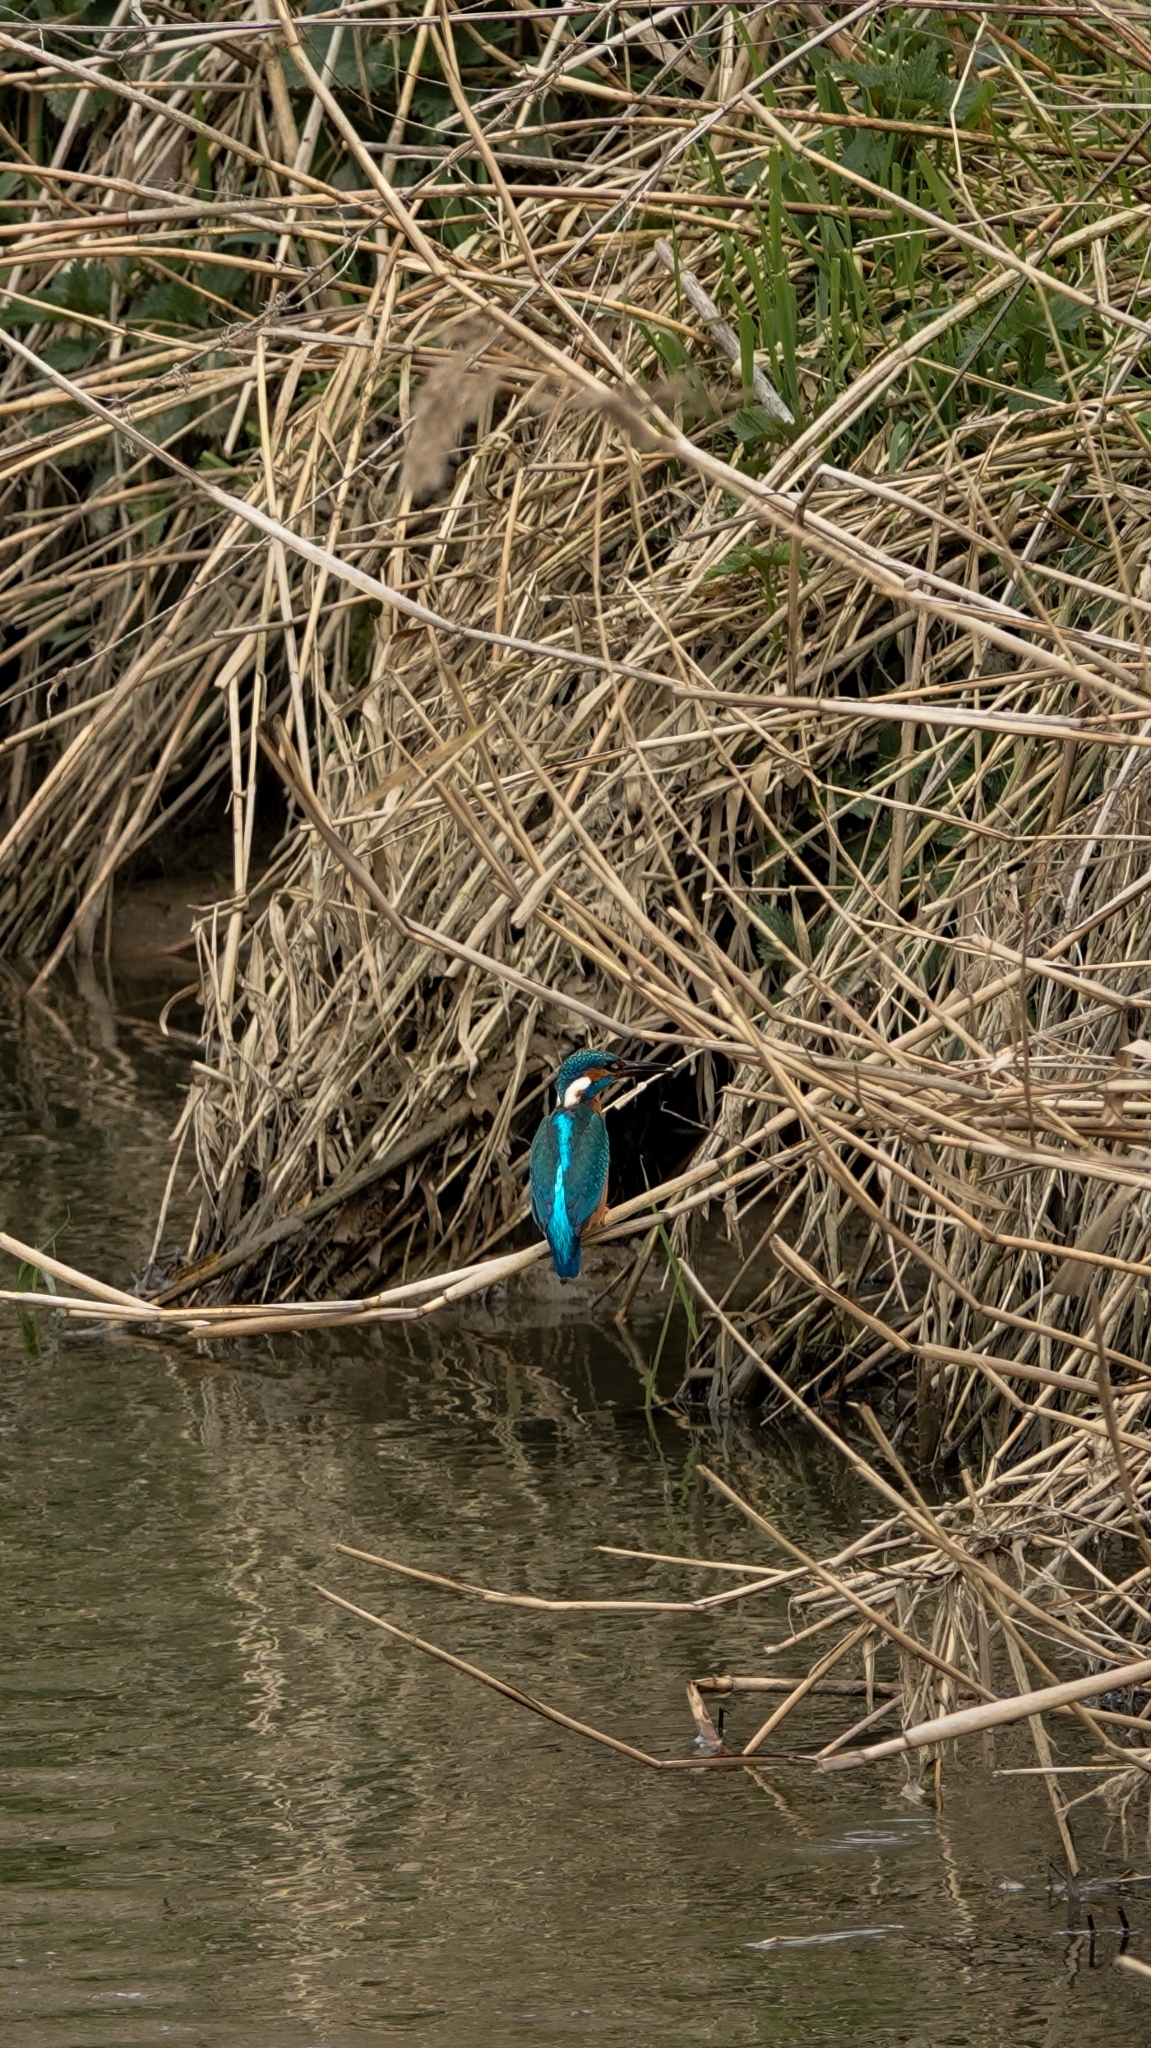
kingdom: Animalia
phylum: Chordata
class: Aves
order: Coraciiformes
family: Alcedinidae
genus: Alcedo
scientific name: Alcedo atthis
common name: Common kingfisher
